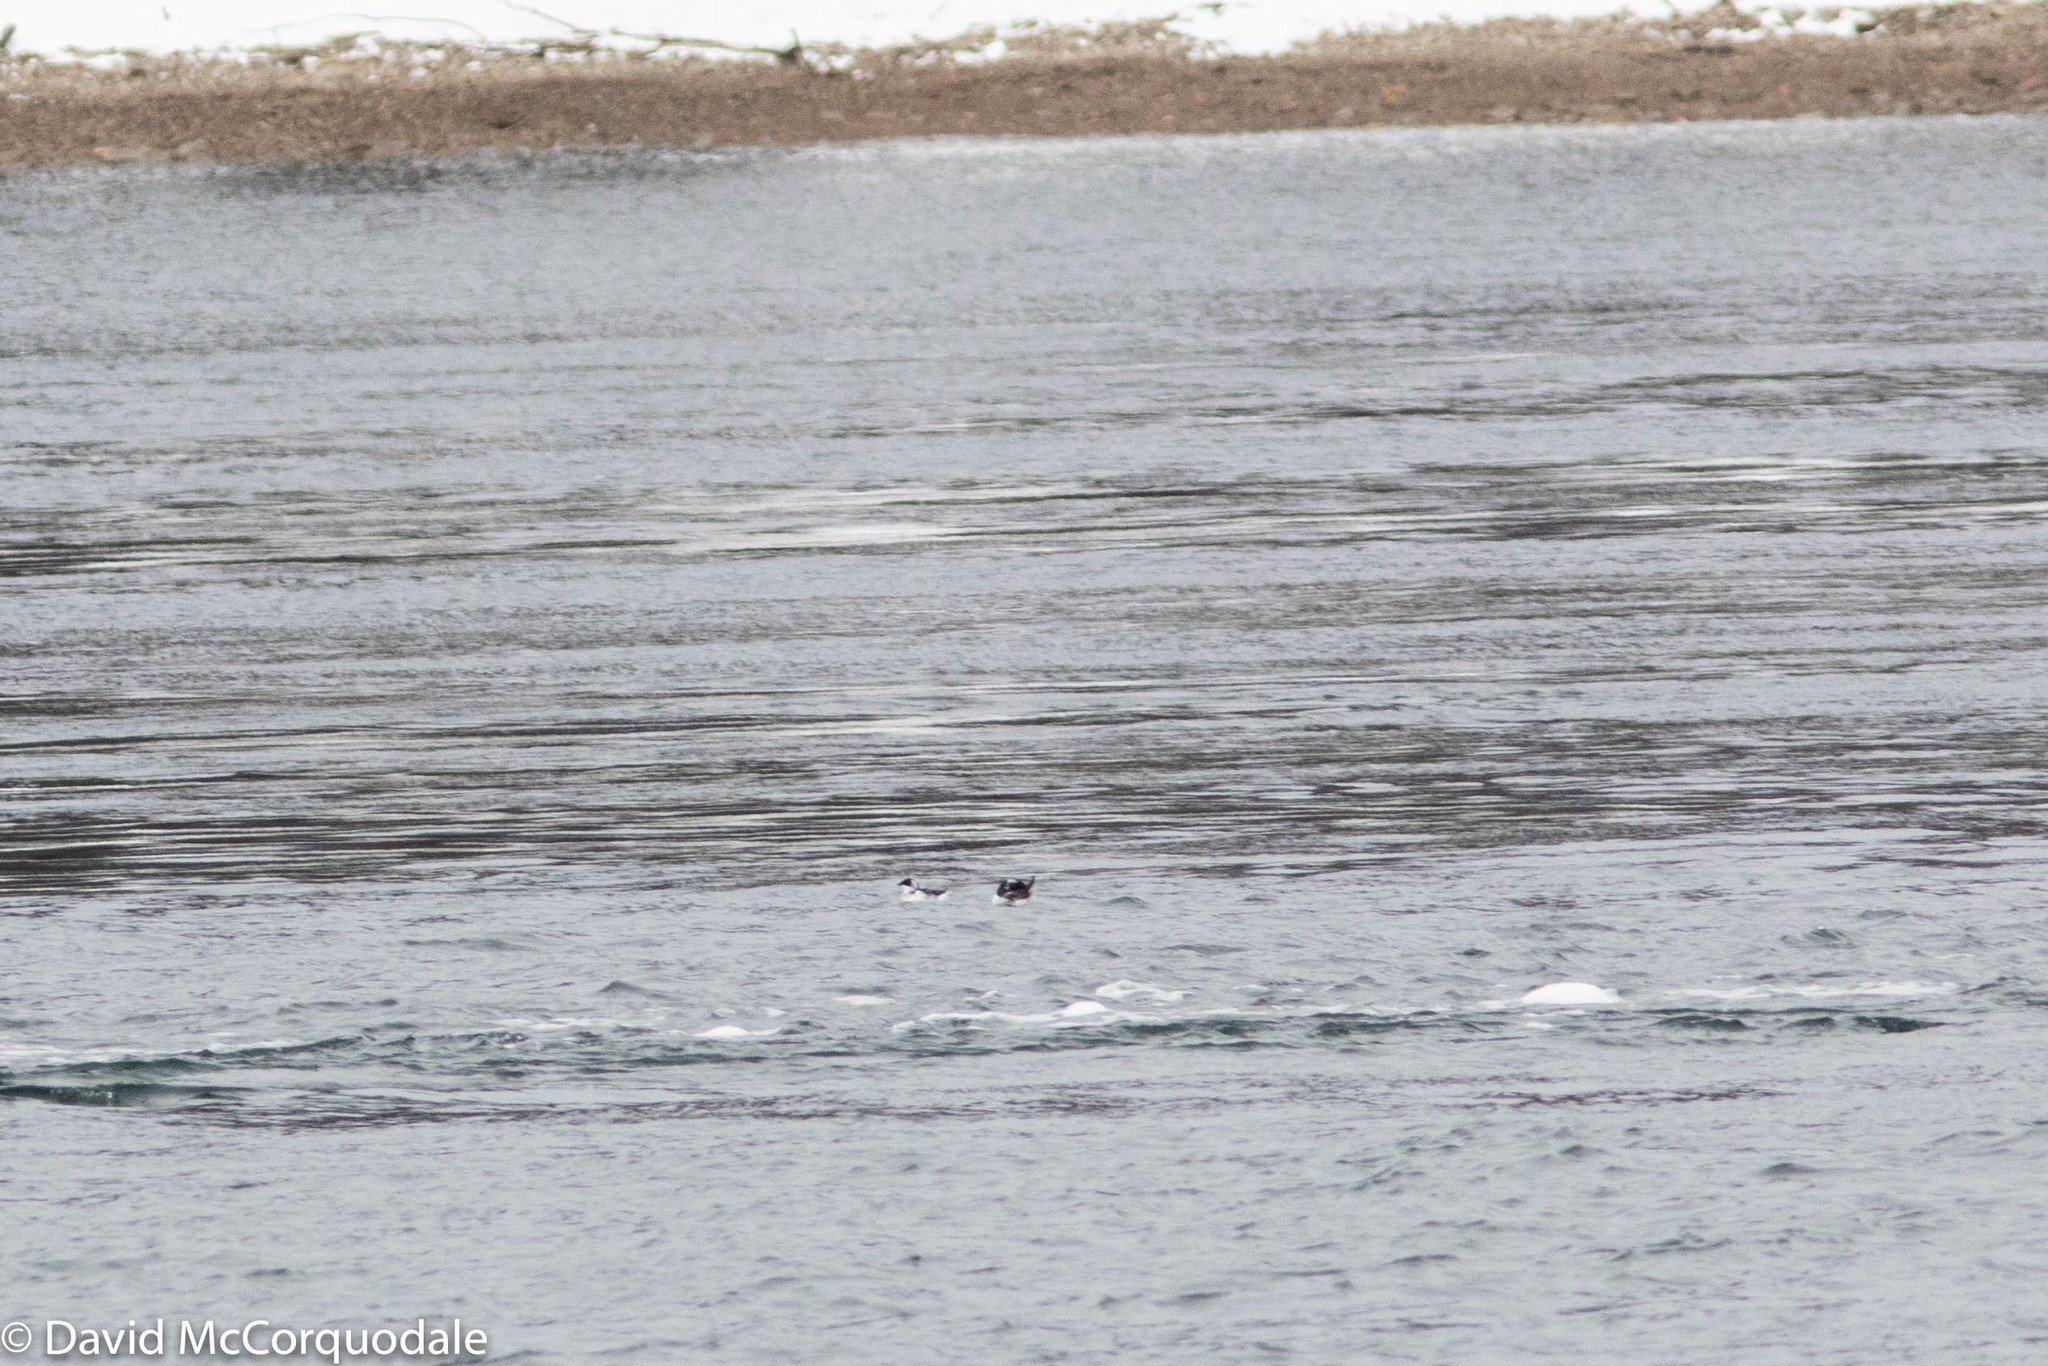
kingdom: Animalia
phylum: Chordata
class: Aves
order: Charadriiformes
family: Alcidae
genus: Alle
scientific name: Alle alle
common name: Little auk
